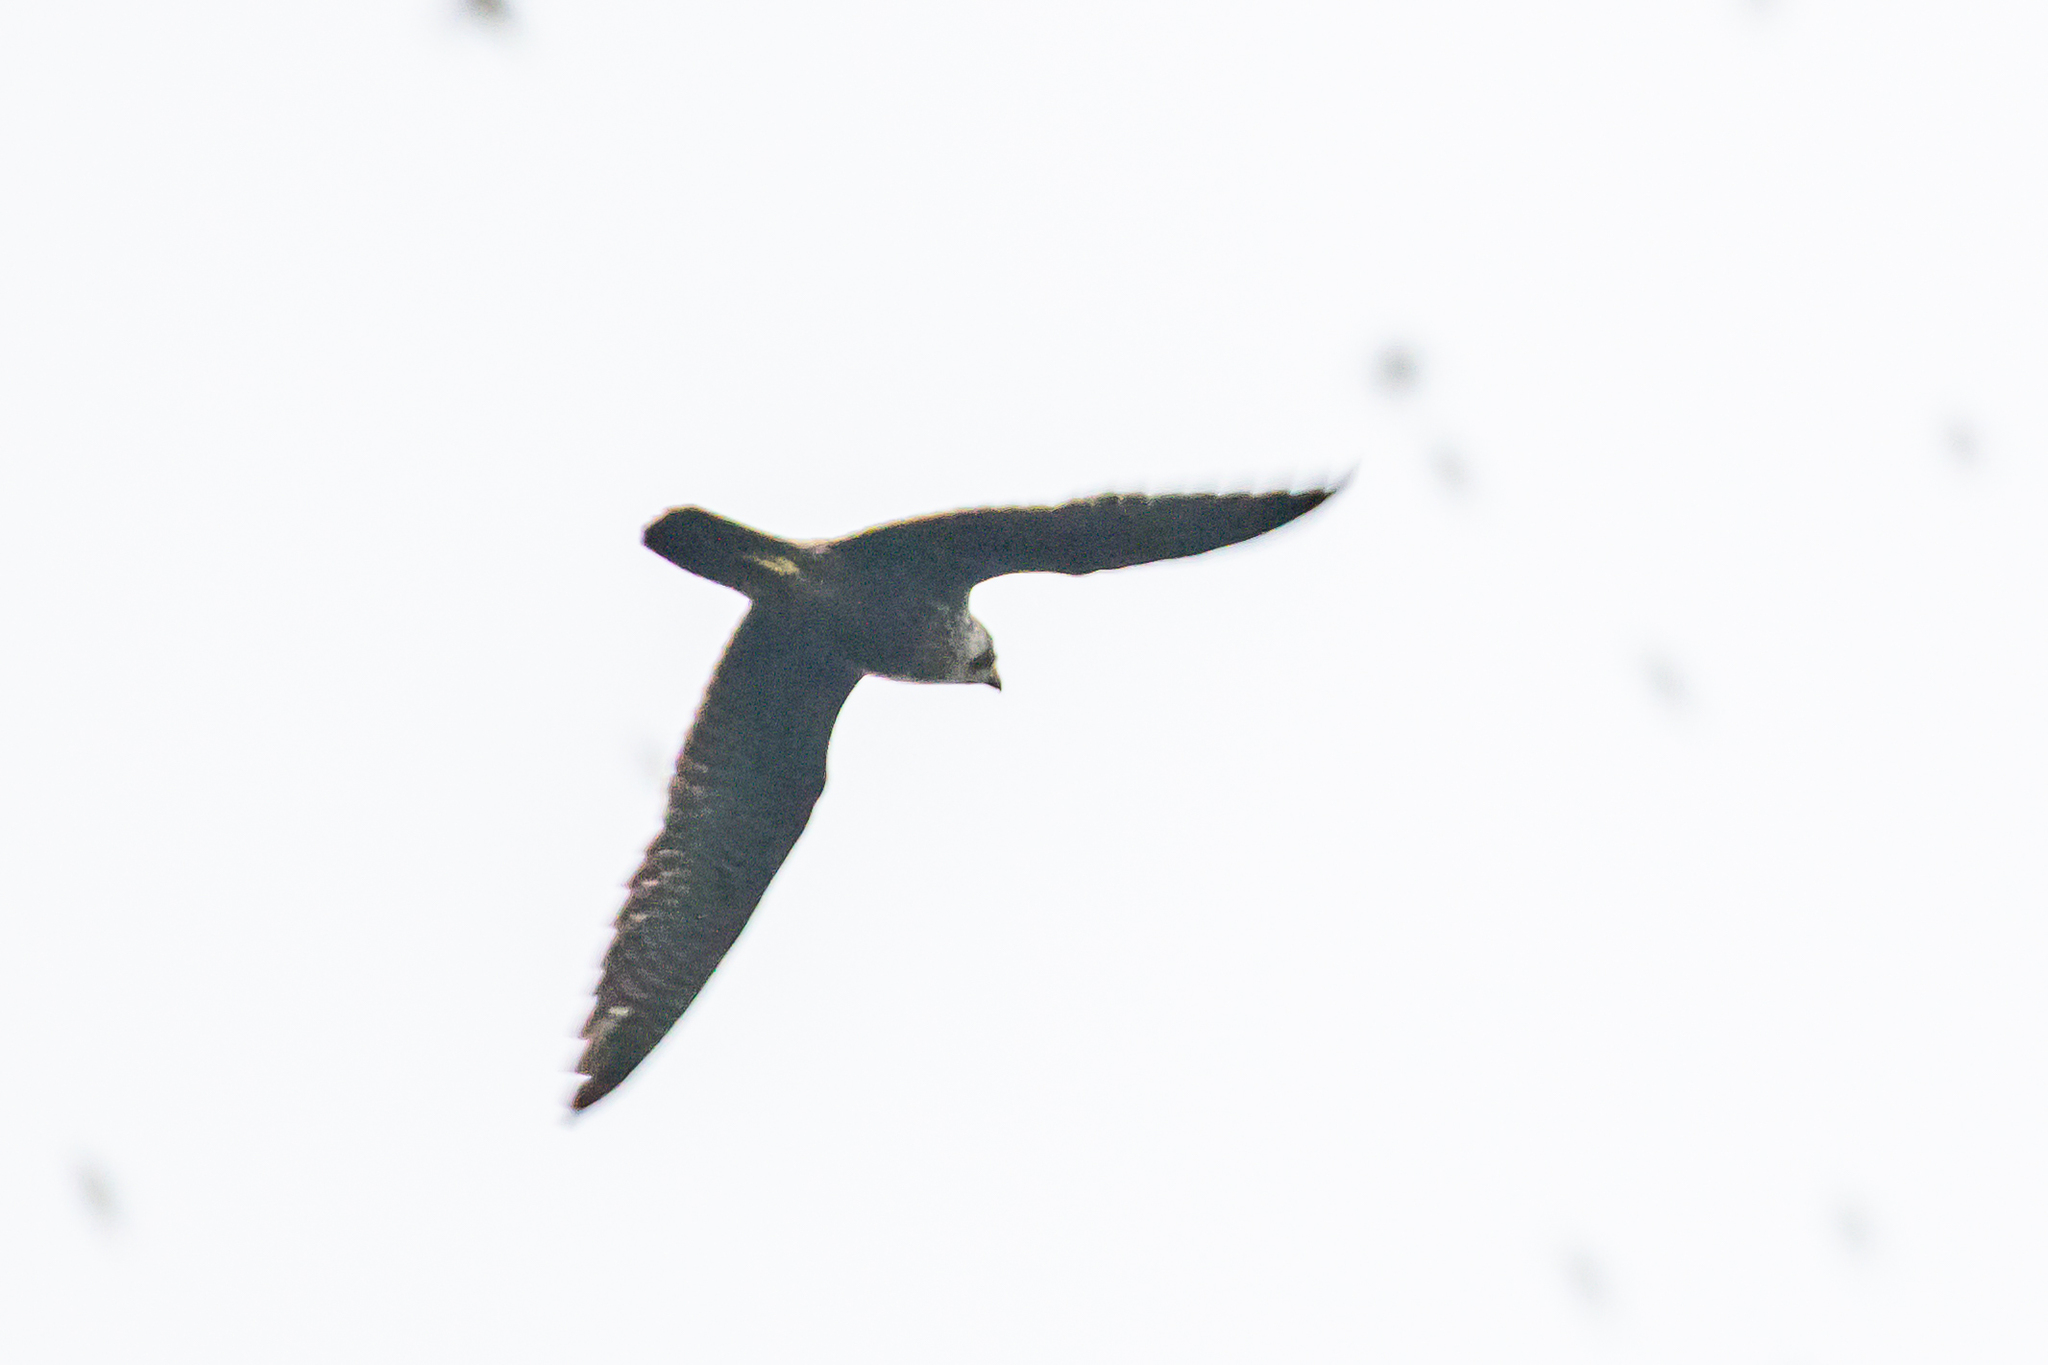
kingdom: Animalia
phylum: Chordata
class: Aves
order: Falconiformes
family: Falconidae
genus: Falco
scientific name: Falco peregrinus
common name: Peregrine falcon
